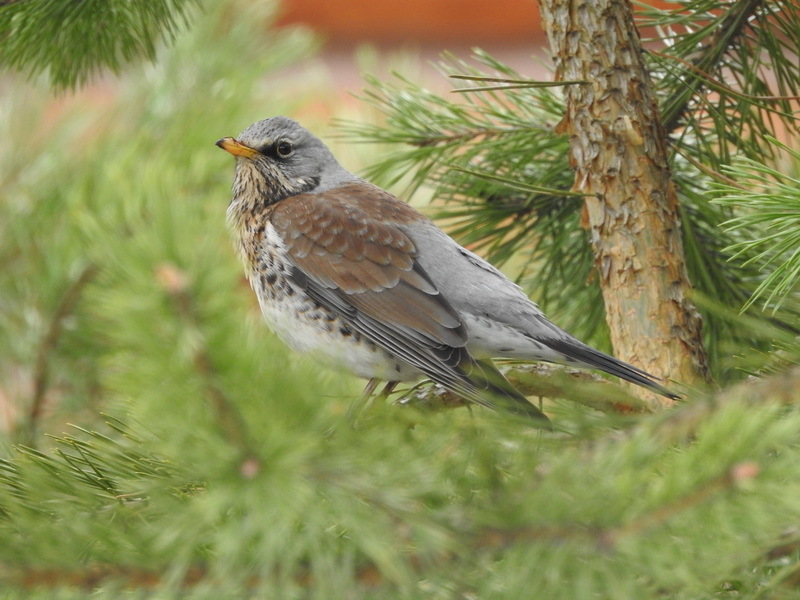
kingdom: Animalia
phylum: Chordata
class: Aves
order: Passeriformes
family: Turdidae
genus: Turdus
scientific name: Turdus pilaris
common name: Fieldfare
